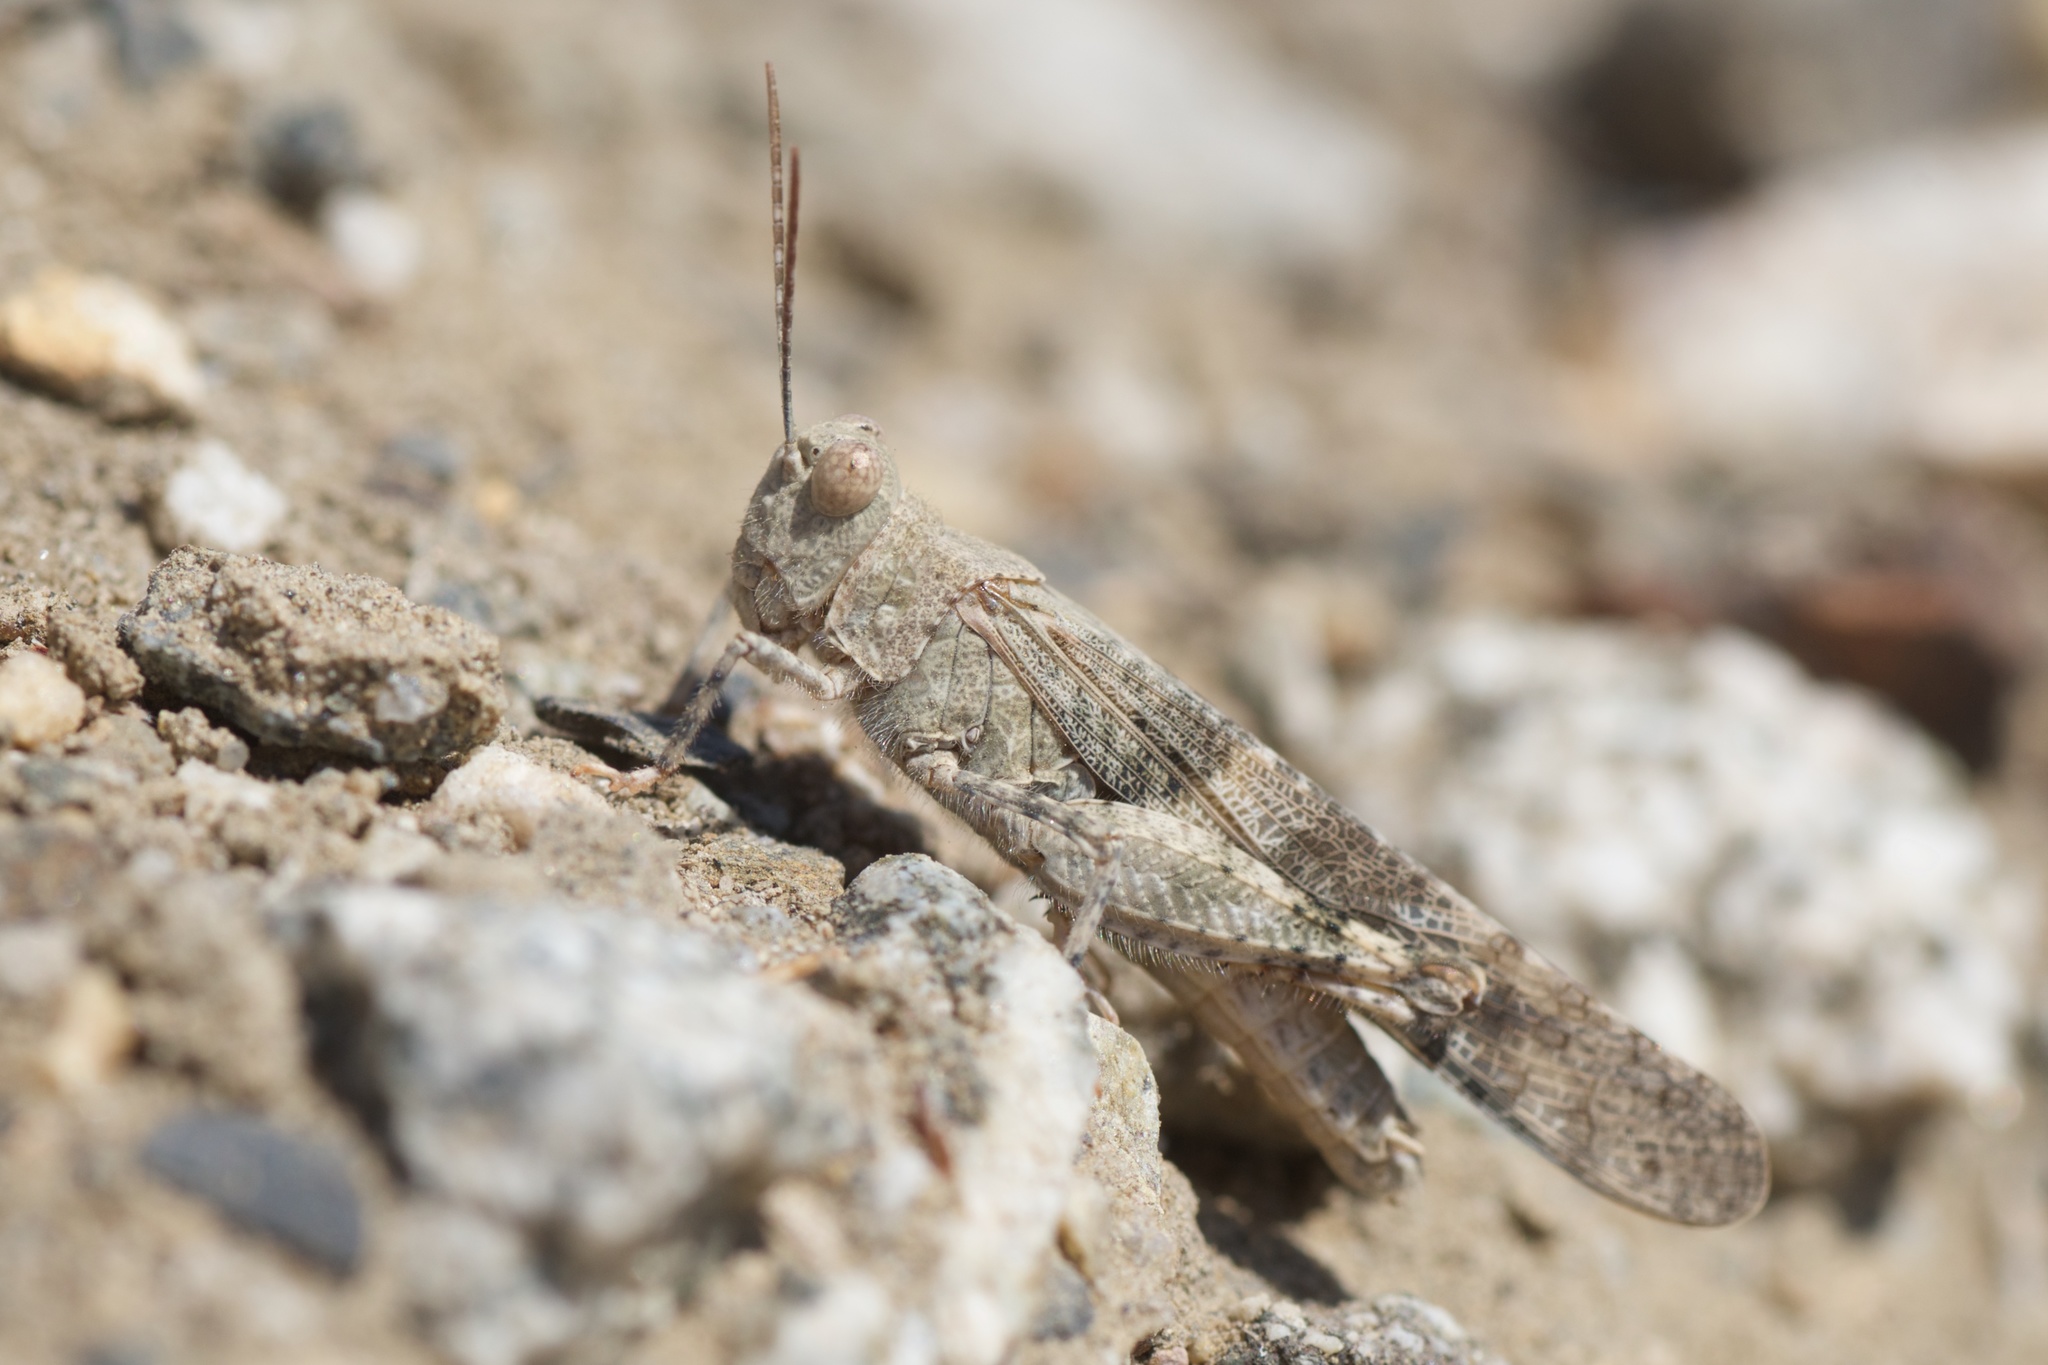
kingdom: Animalia
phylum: Arthropoda
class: Insecta
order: Orthoptera
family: Acrididae
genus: Trimerotropis
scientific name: Trimerotropis pallidipennis
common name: Pallid-winged grasshopper
